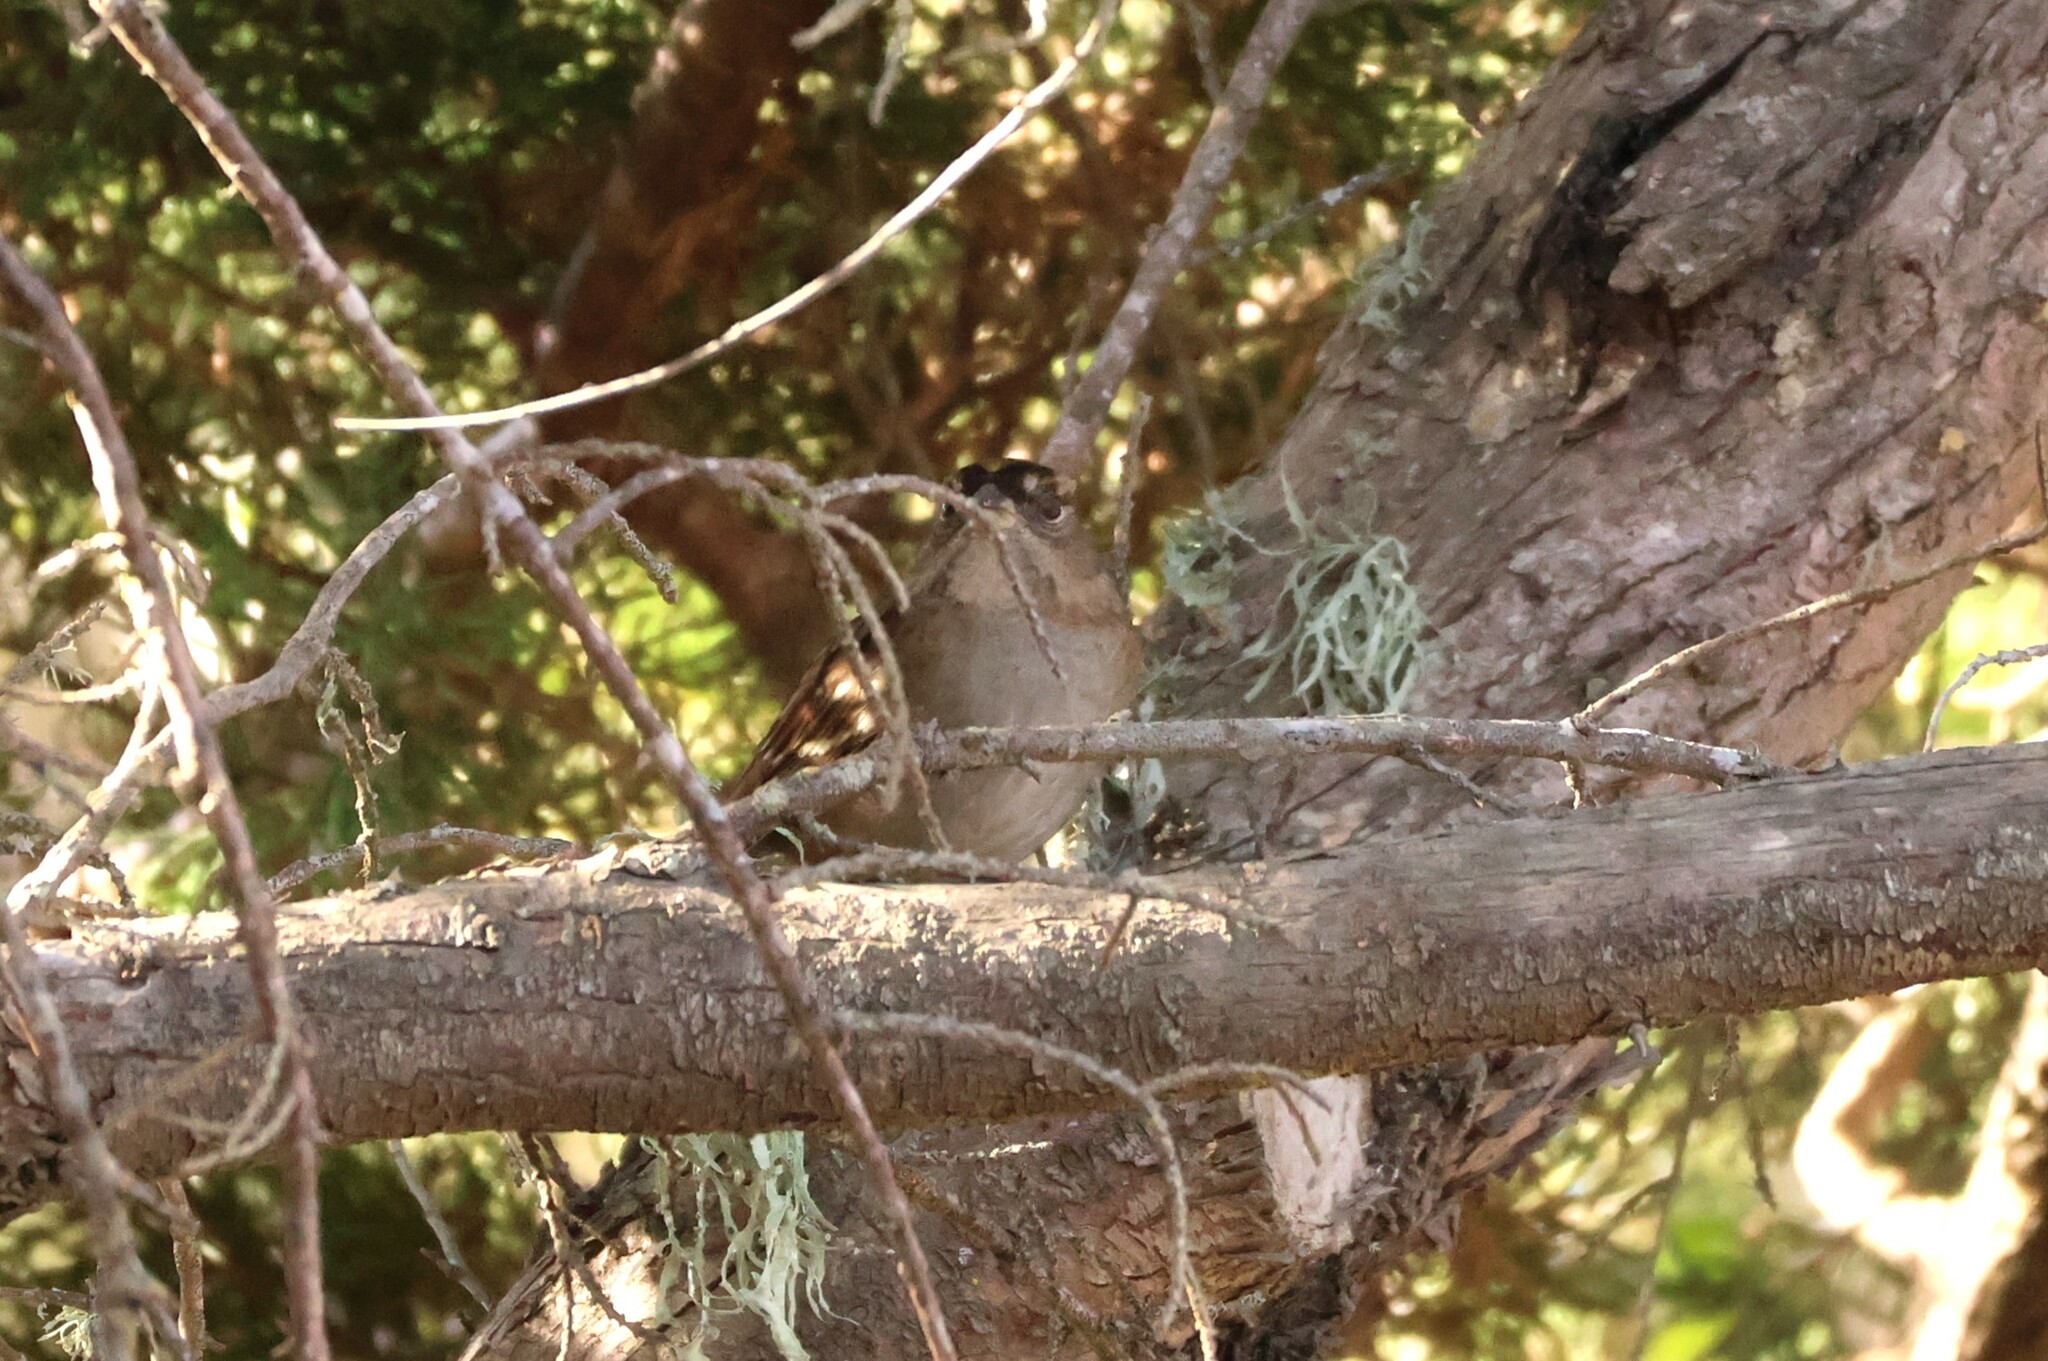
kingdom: Animalia
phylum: Chordata
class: Aves
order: Passeriformes
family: Passerellidae
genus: Zonotrichia
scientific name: Zonotrichia atricapilla
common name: Golden-crowned sparrow
